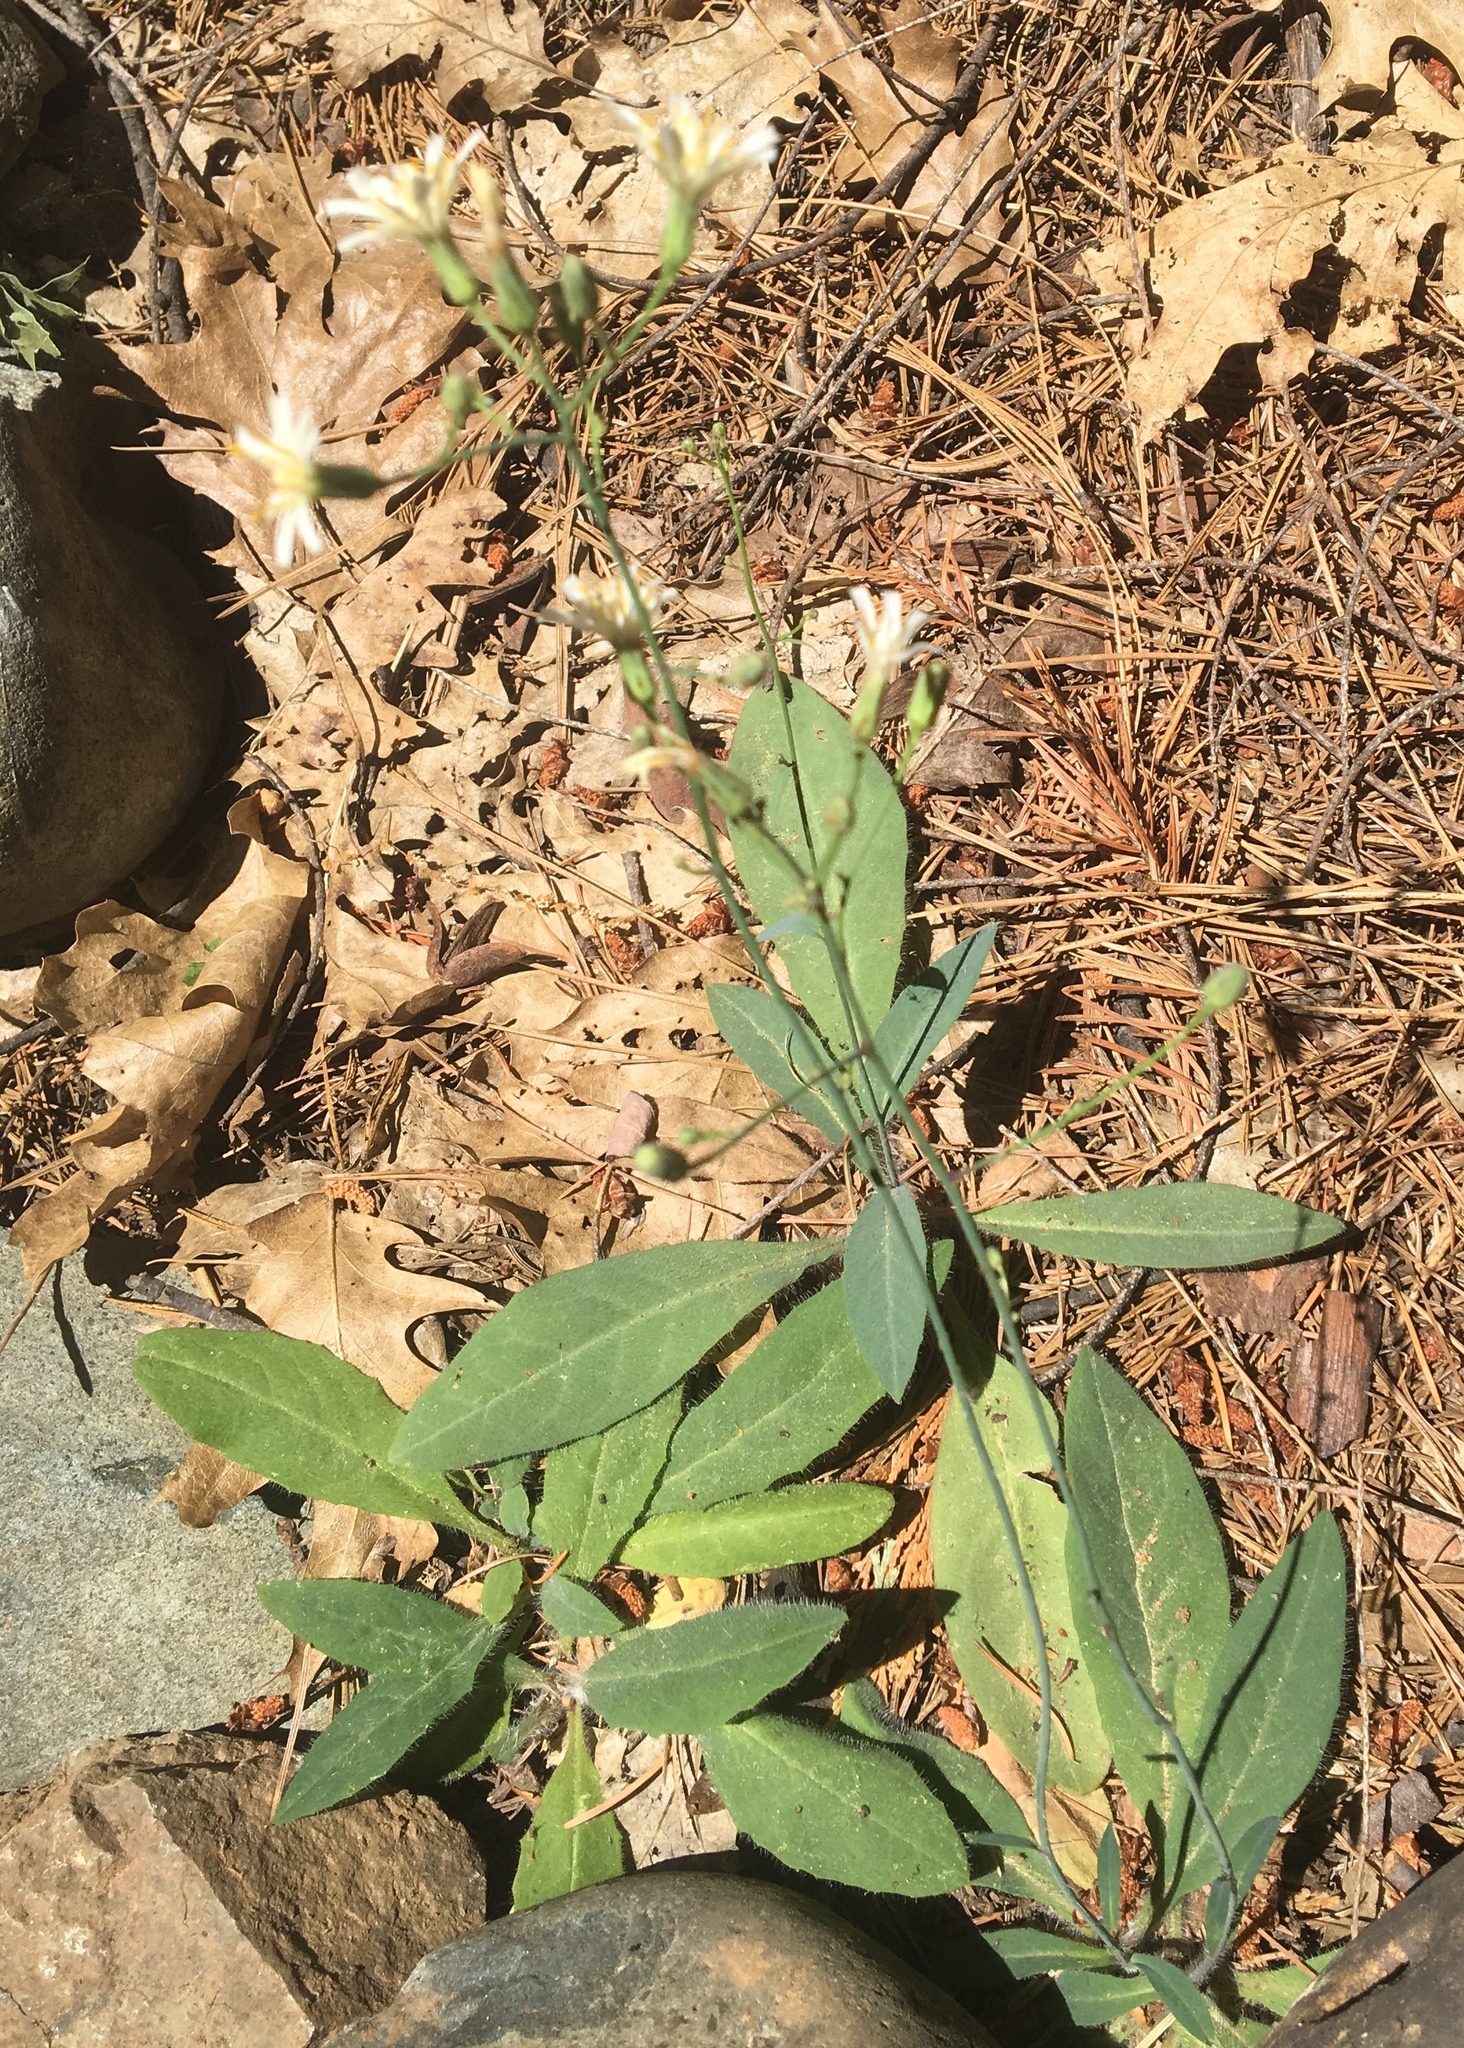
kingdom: Plantae
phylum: Tracheophyta
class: Magnoliopsida
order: Asterales
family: Asteraceae
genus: Hieracium
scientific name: Hieracium albiflorum
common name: White hawkweed
